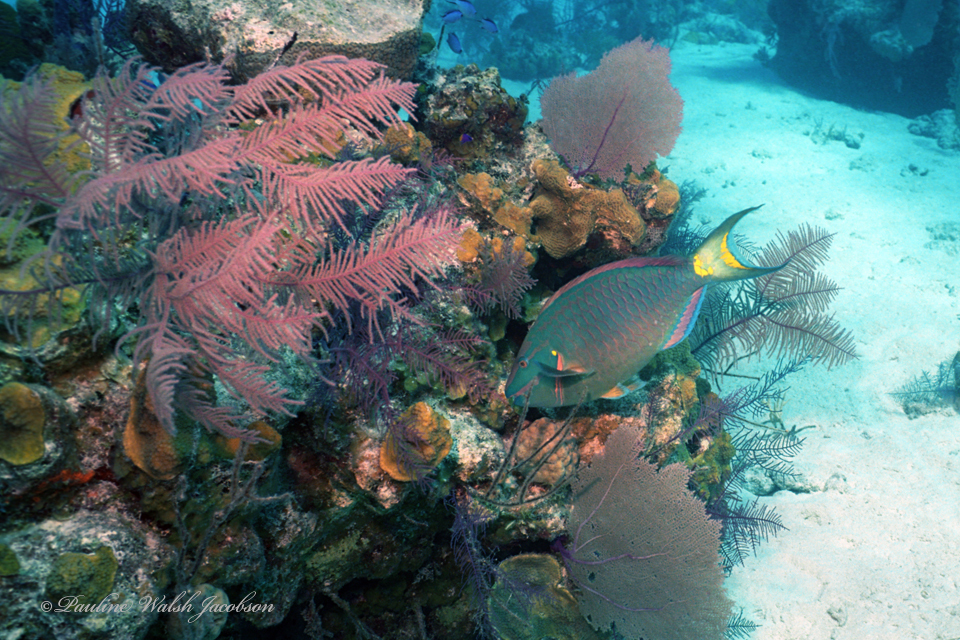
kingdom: Animalia
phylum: Chordata
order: Perciformes
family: Scaridae
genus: Sparisoma
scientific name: Sparisoma viride
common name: Stoplight parrotfish
